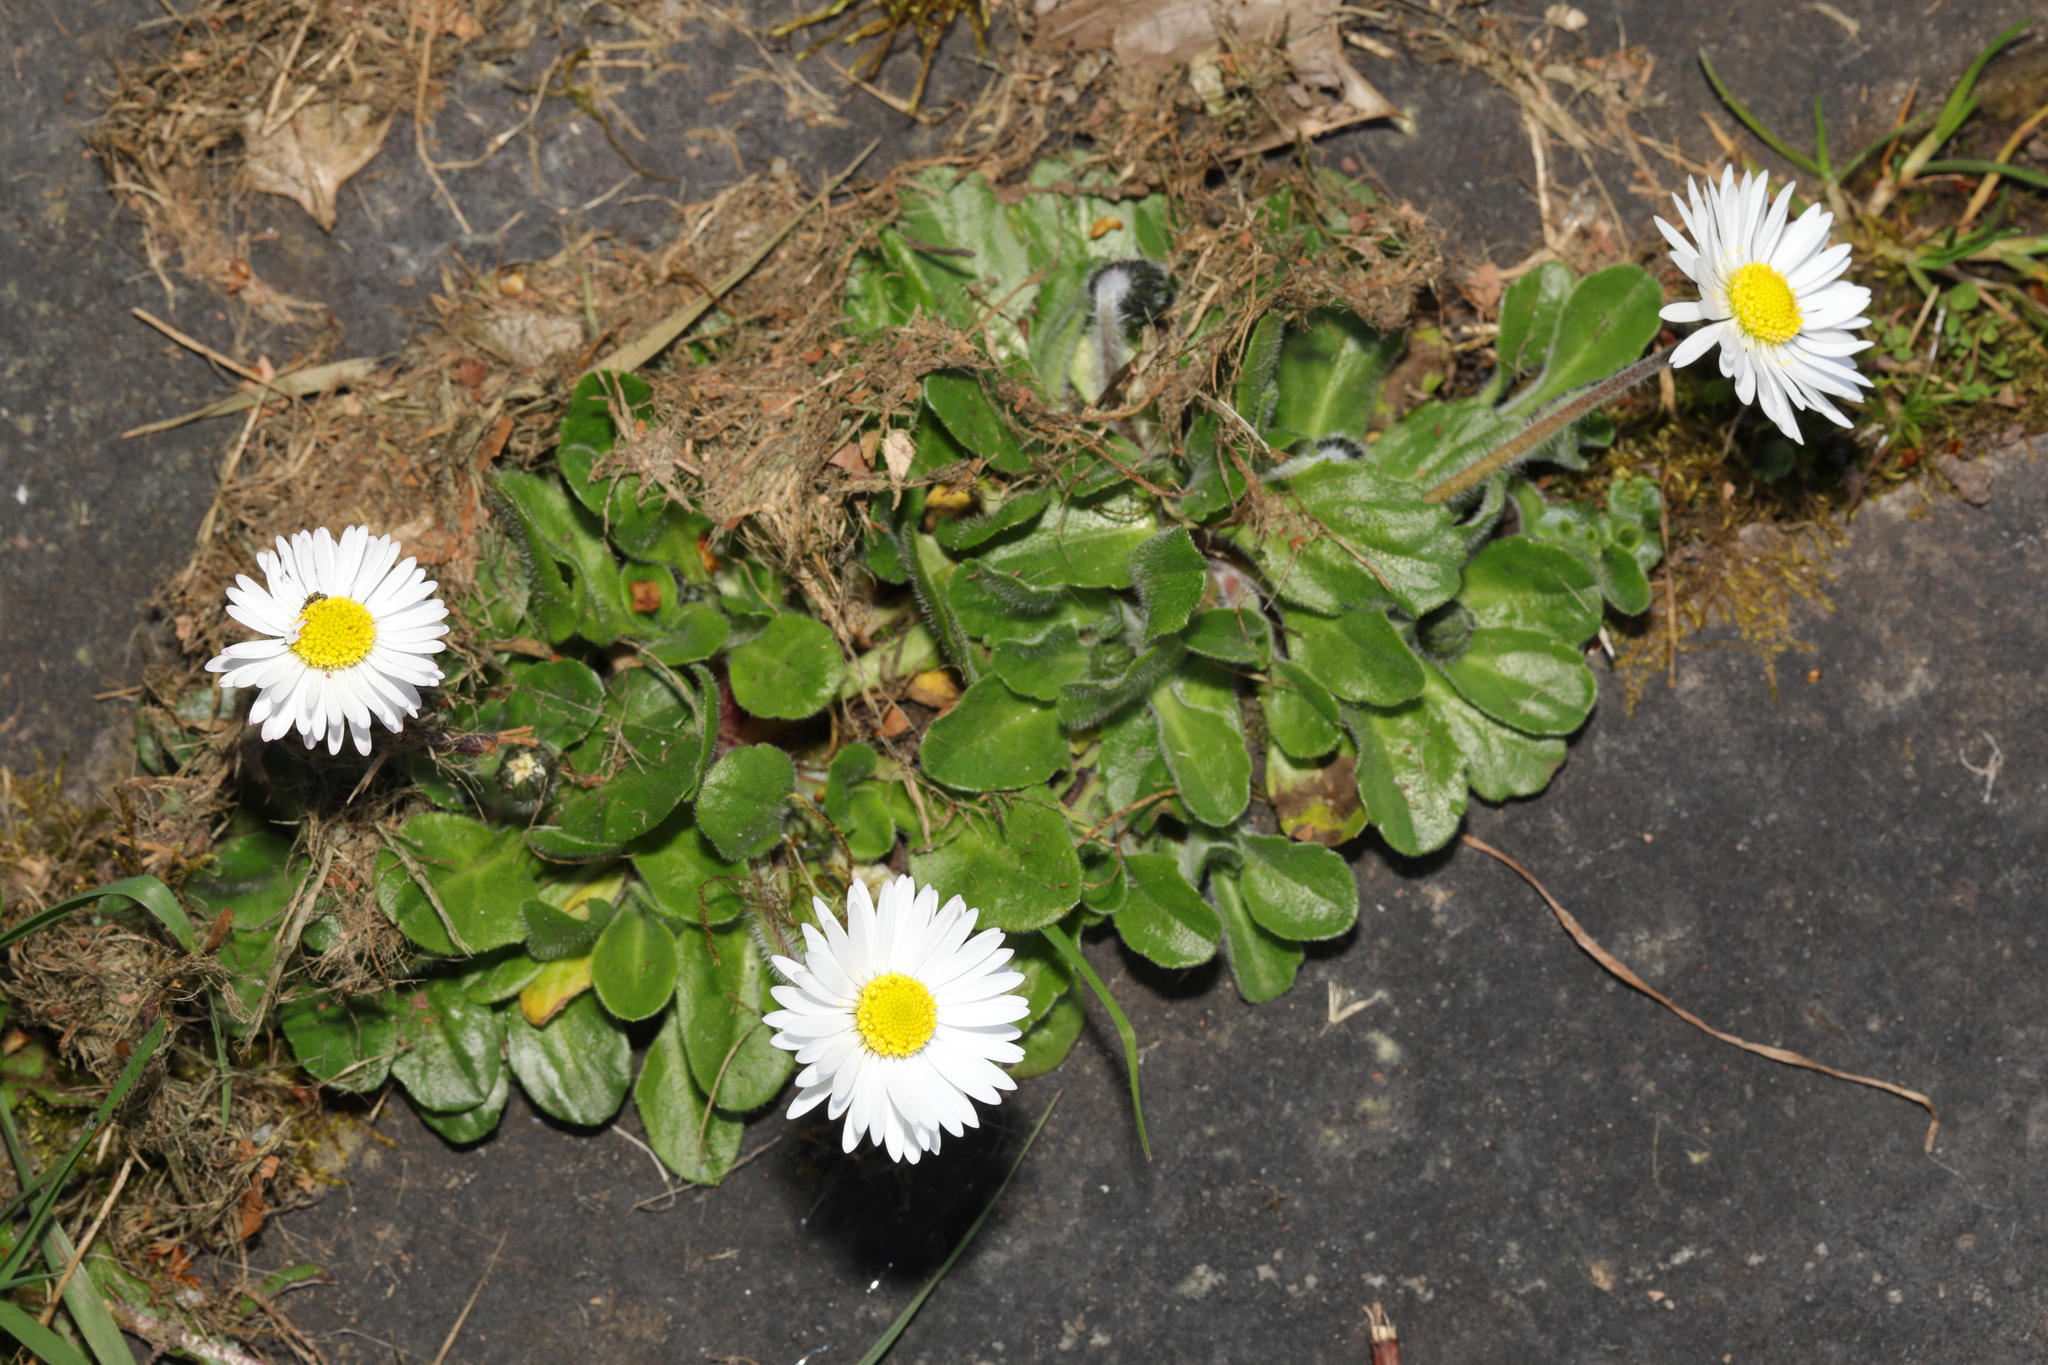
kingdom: Plantae
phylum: Tracheophyta
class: Magnoliopsida
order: Asterales
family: Asteraceae
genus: Bellis
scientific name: Bellis perennis
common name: Lawndaisy
